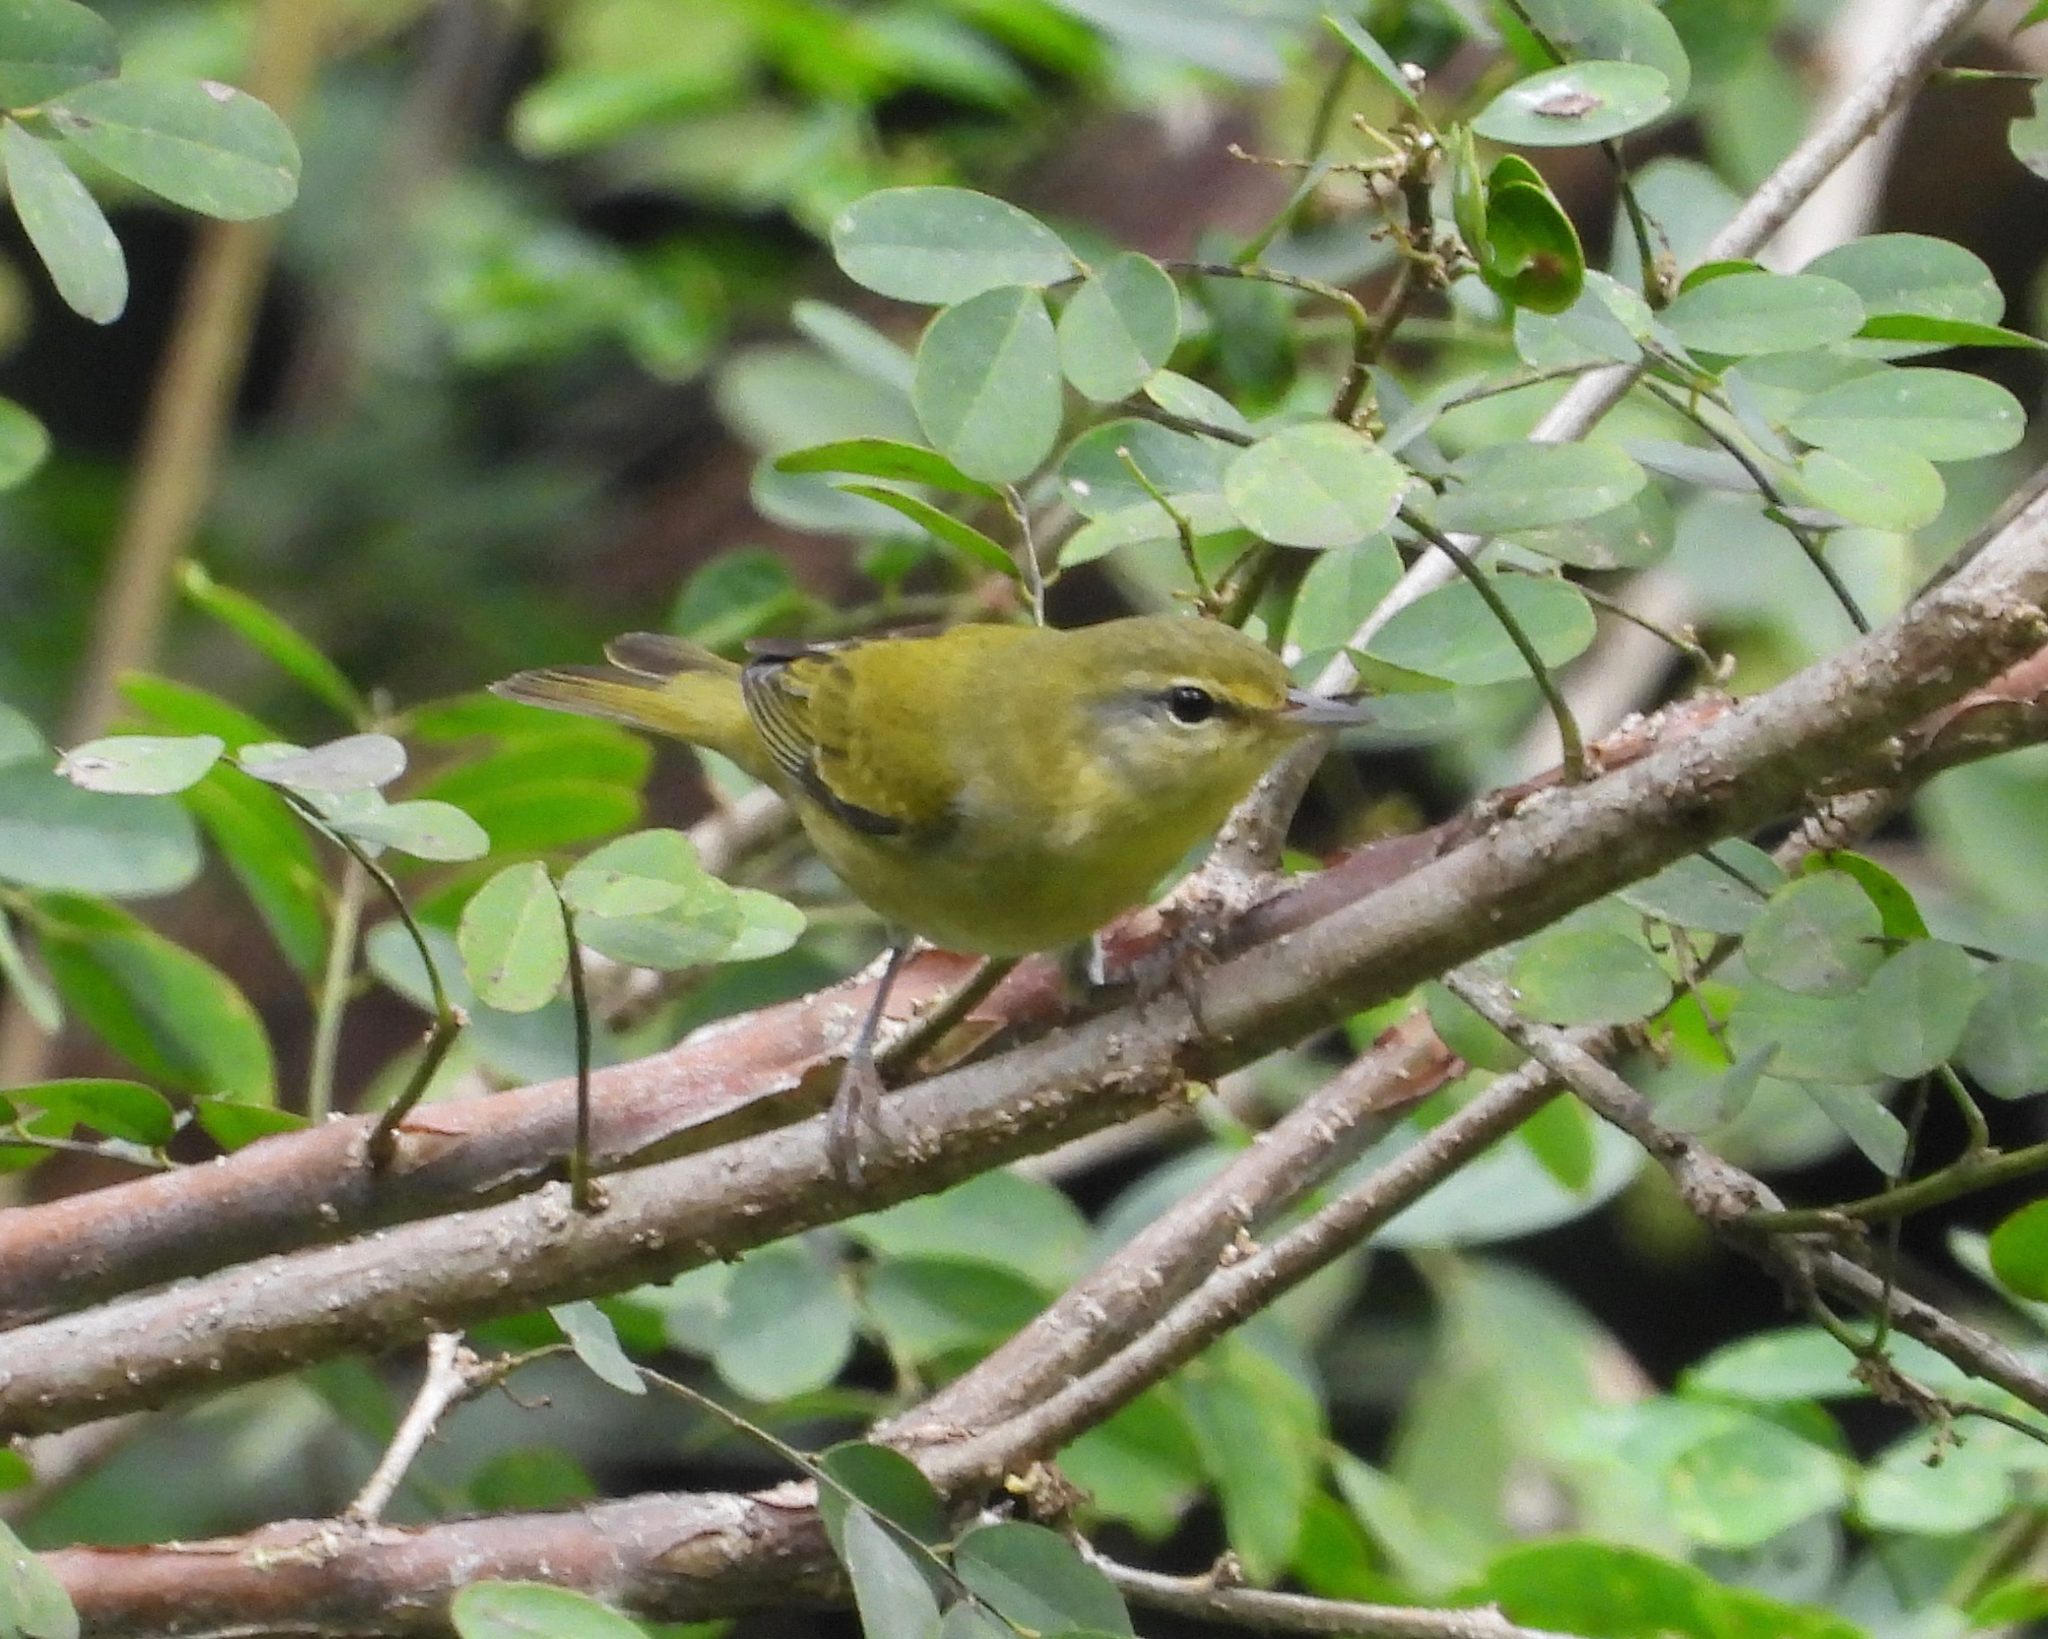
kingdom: Animalia
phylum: Chordata
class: Aves
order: Passeriformes
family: Parulidae
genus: Leiothlypis
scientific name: Leiothlypis peregrina
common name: Tennessee warbler
